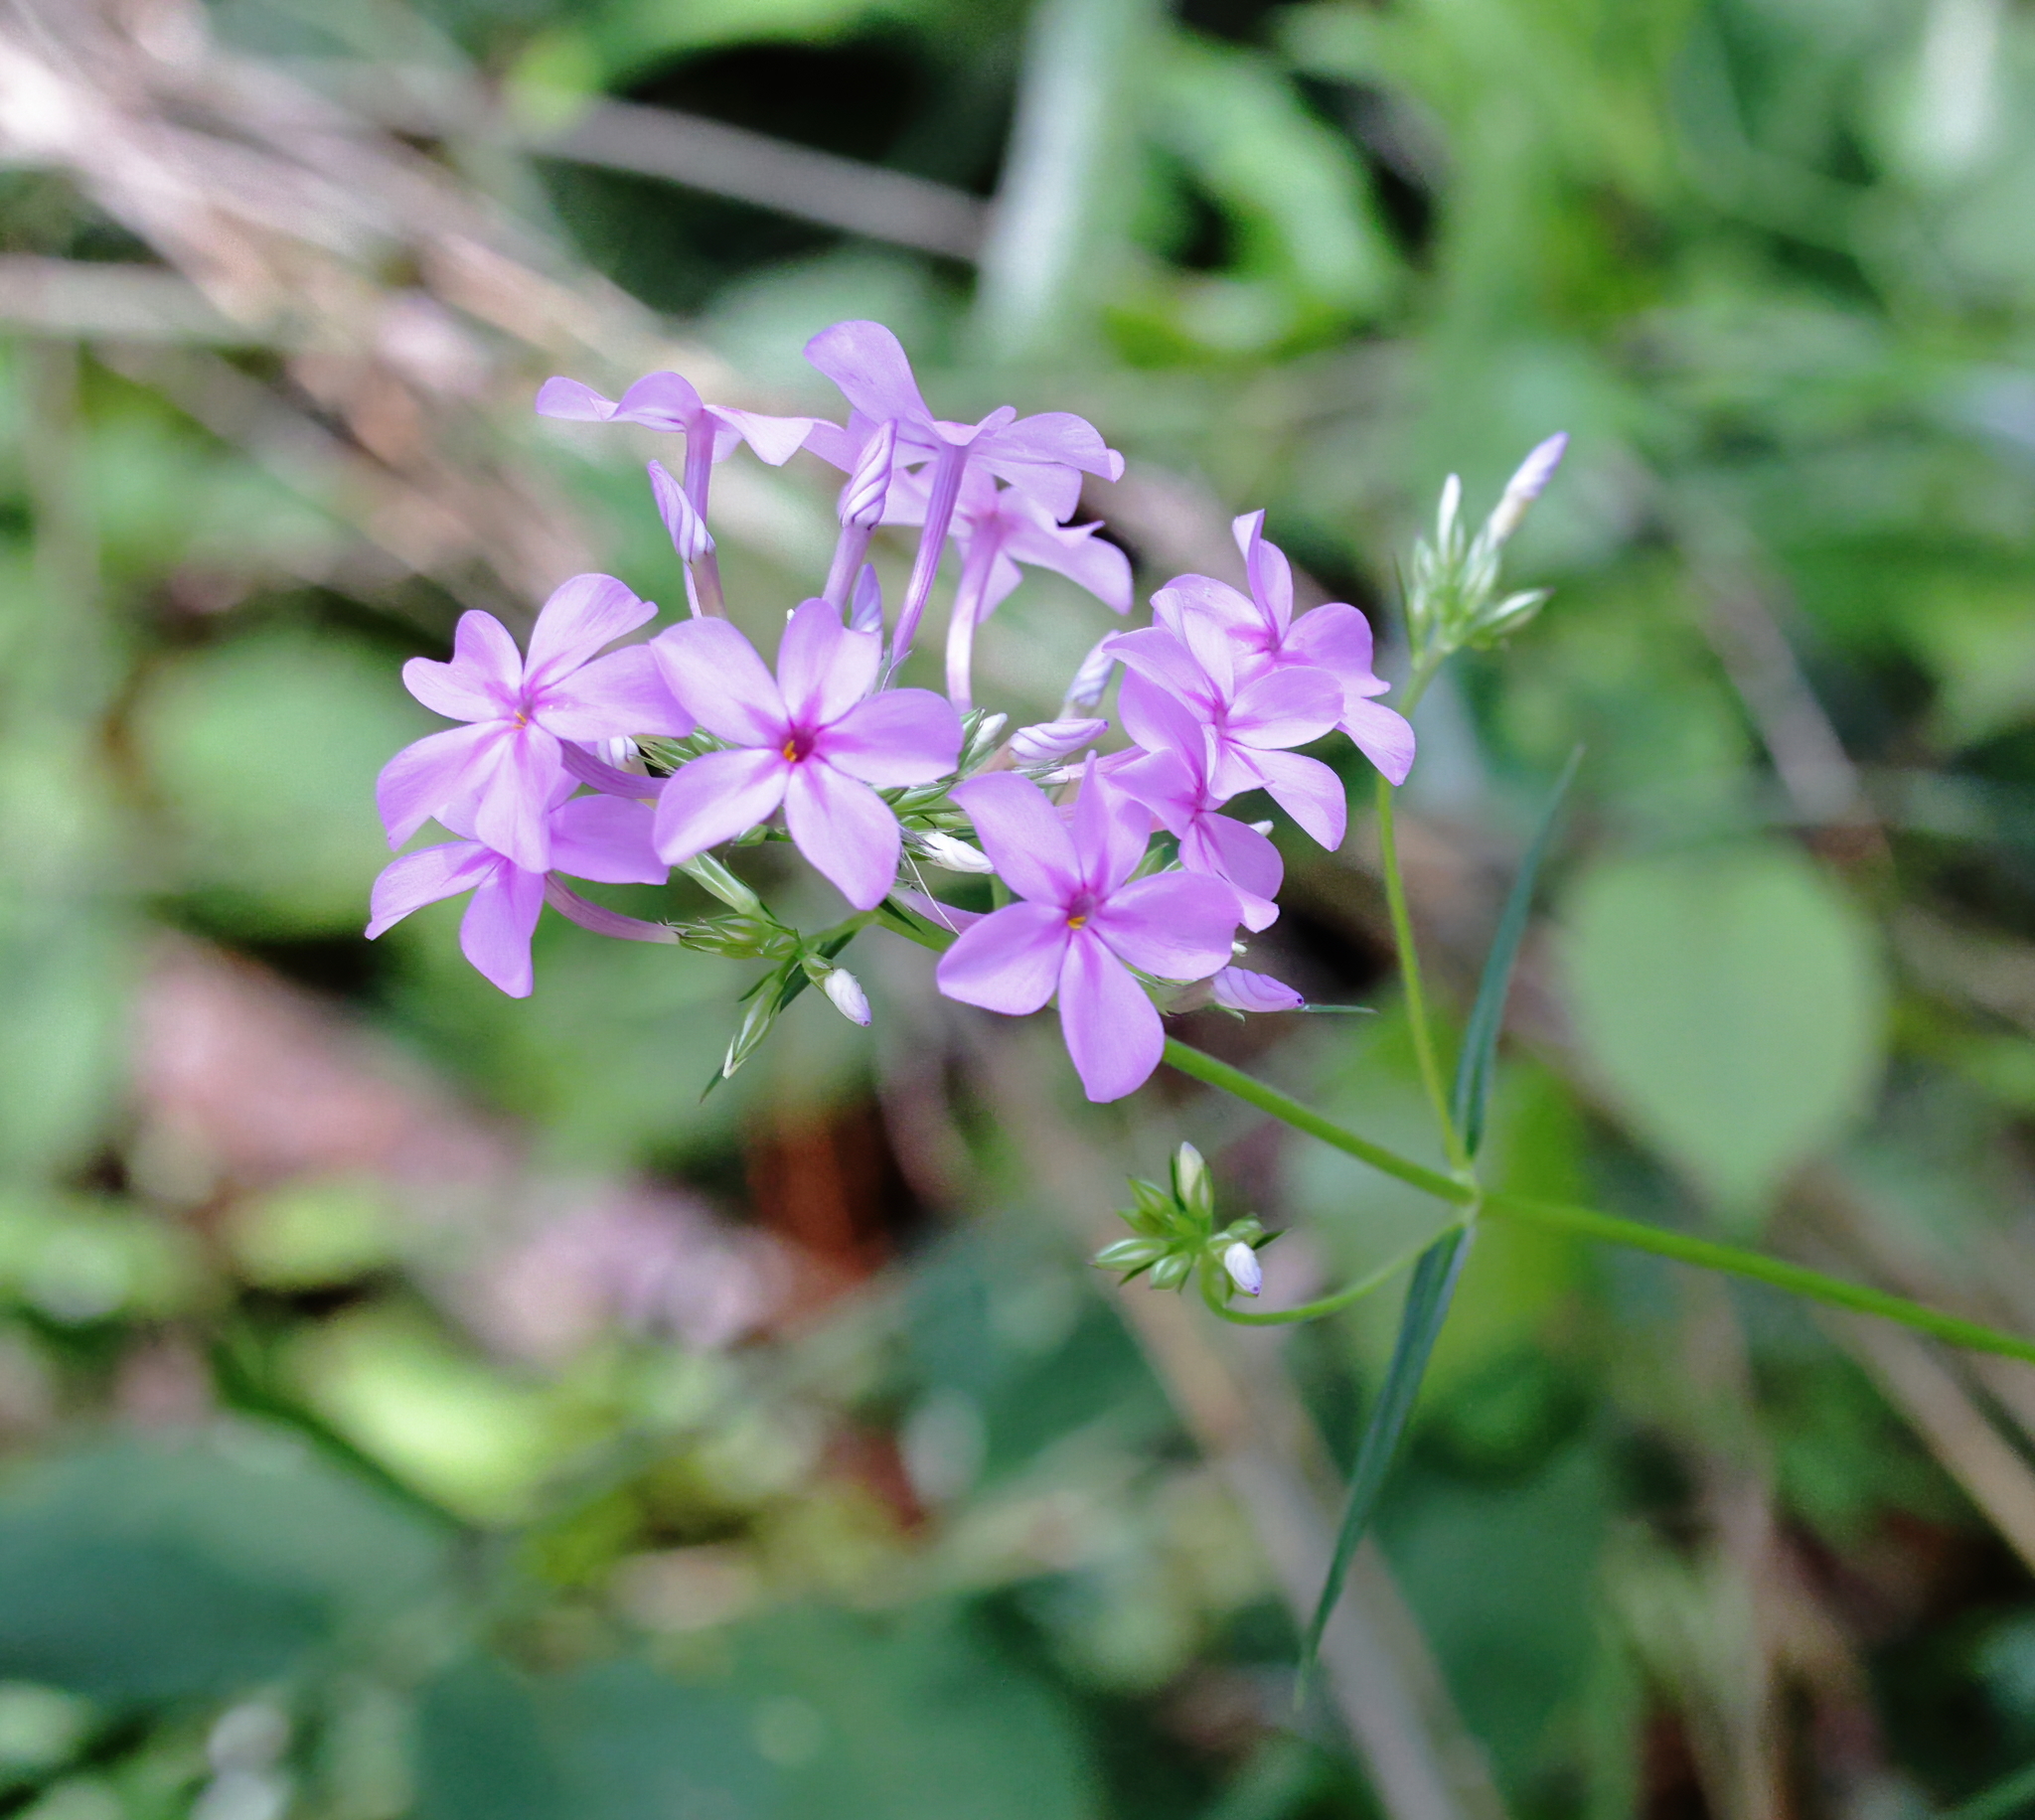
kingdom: Plantae
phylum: Tracheophyta
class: Magnoliopsida
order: Ericales
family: Polemoniaceae
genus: Phlox
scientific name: Phlox carolina
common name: Thick-leaf phlox
